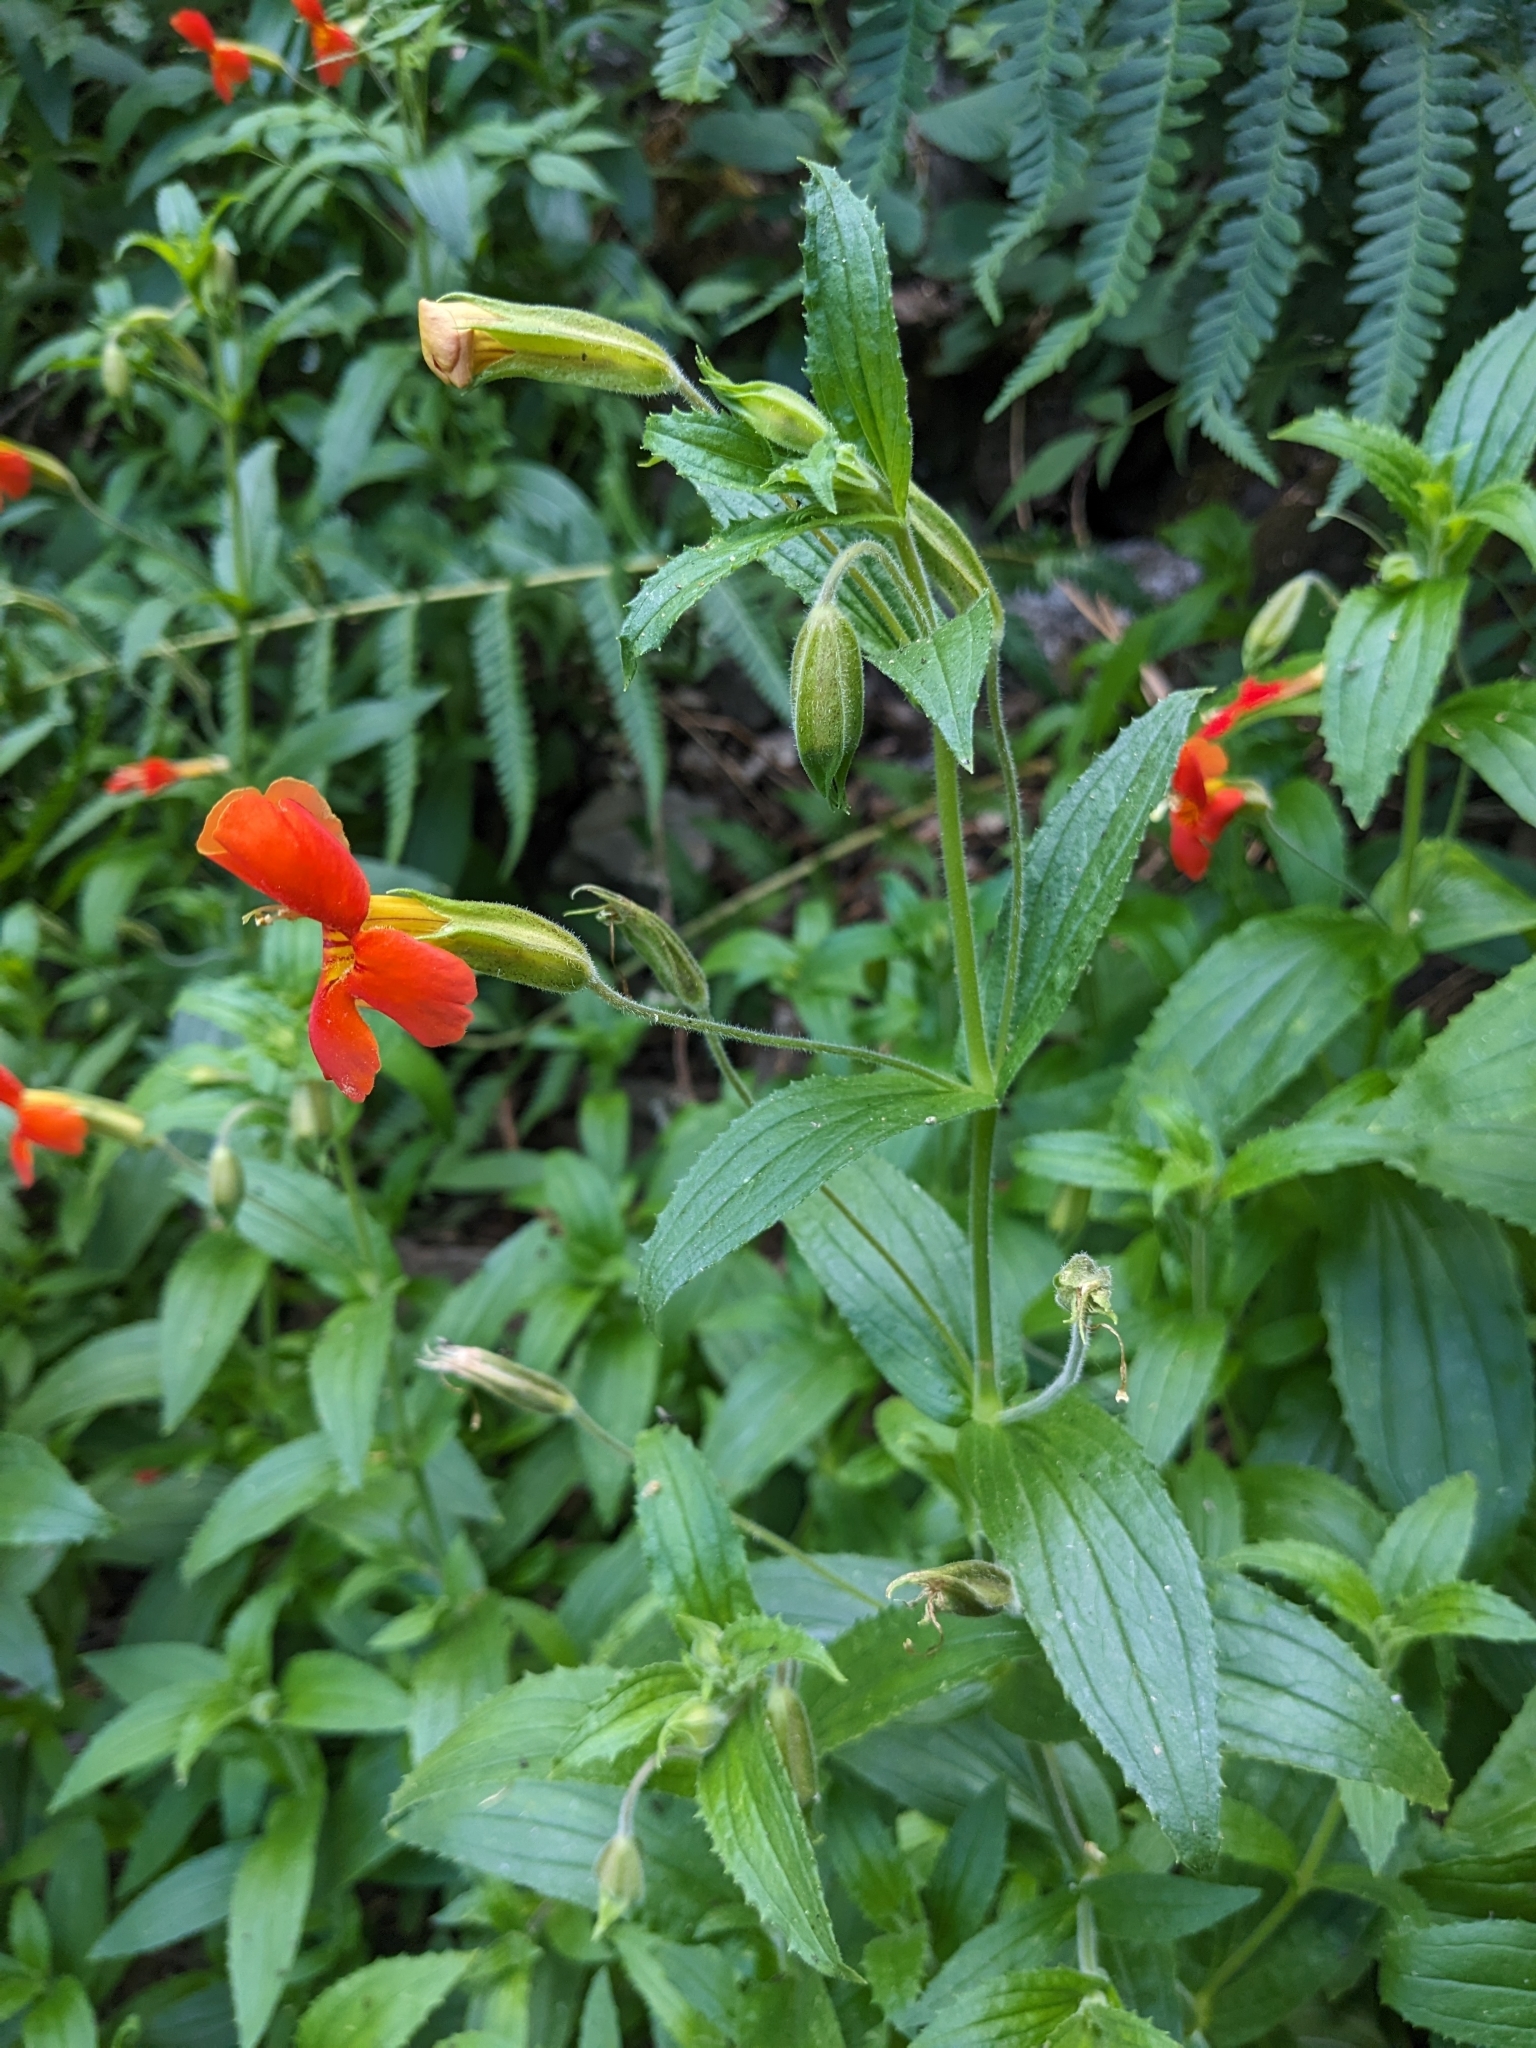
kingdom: Plantae
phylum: Tracheophyta
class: Magnoliopsida
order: Lamiales
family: Phrymaceae
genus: Erythranthe
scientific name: Erythranthe cinnabarina
